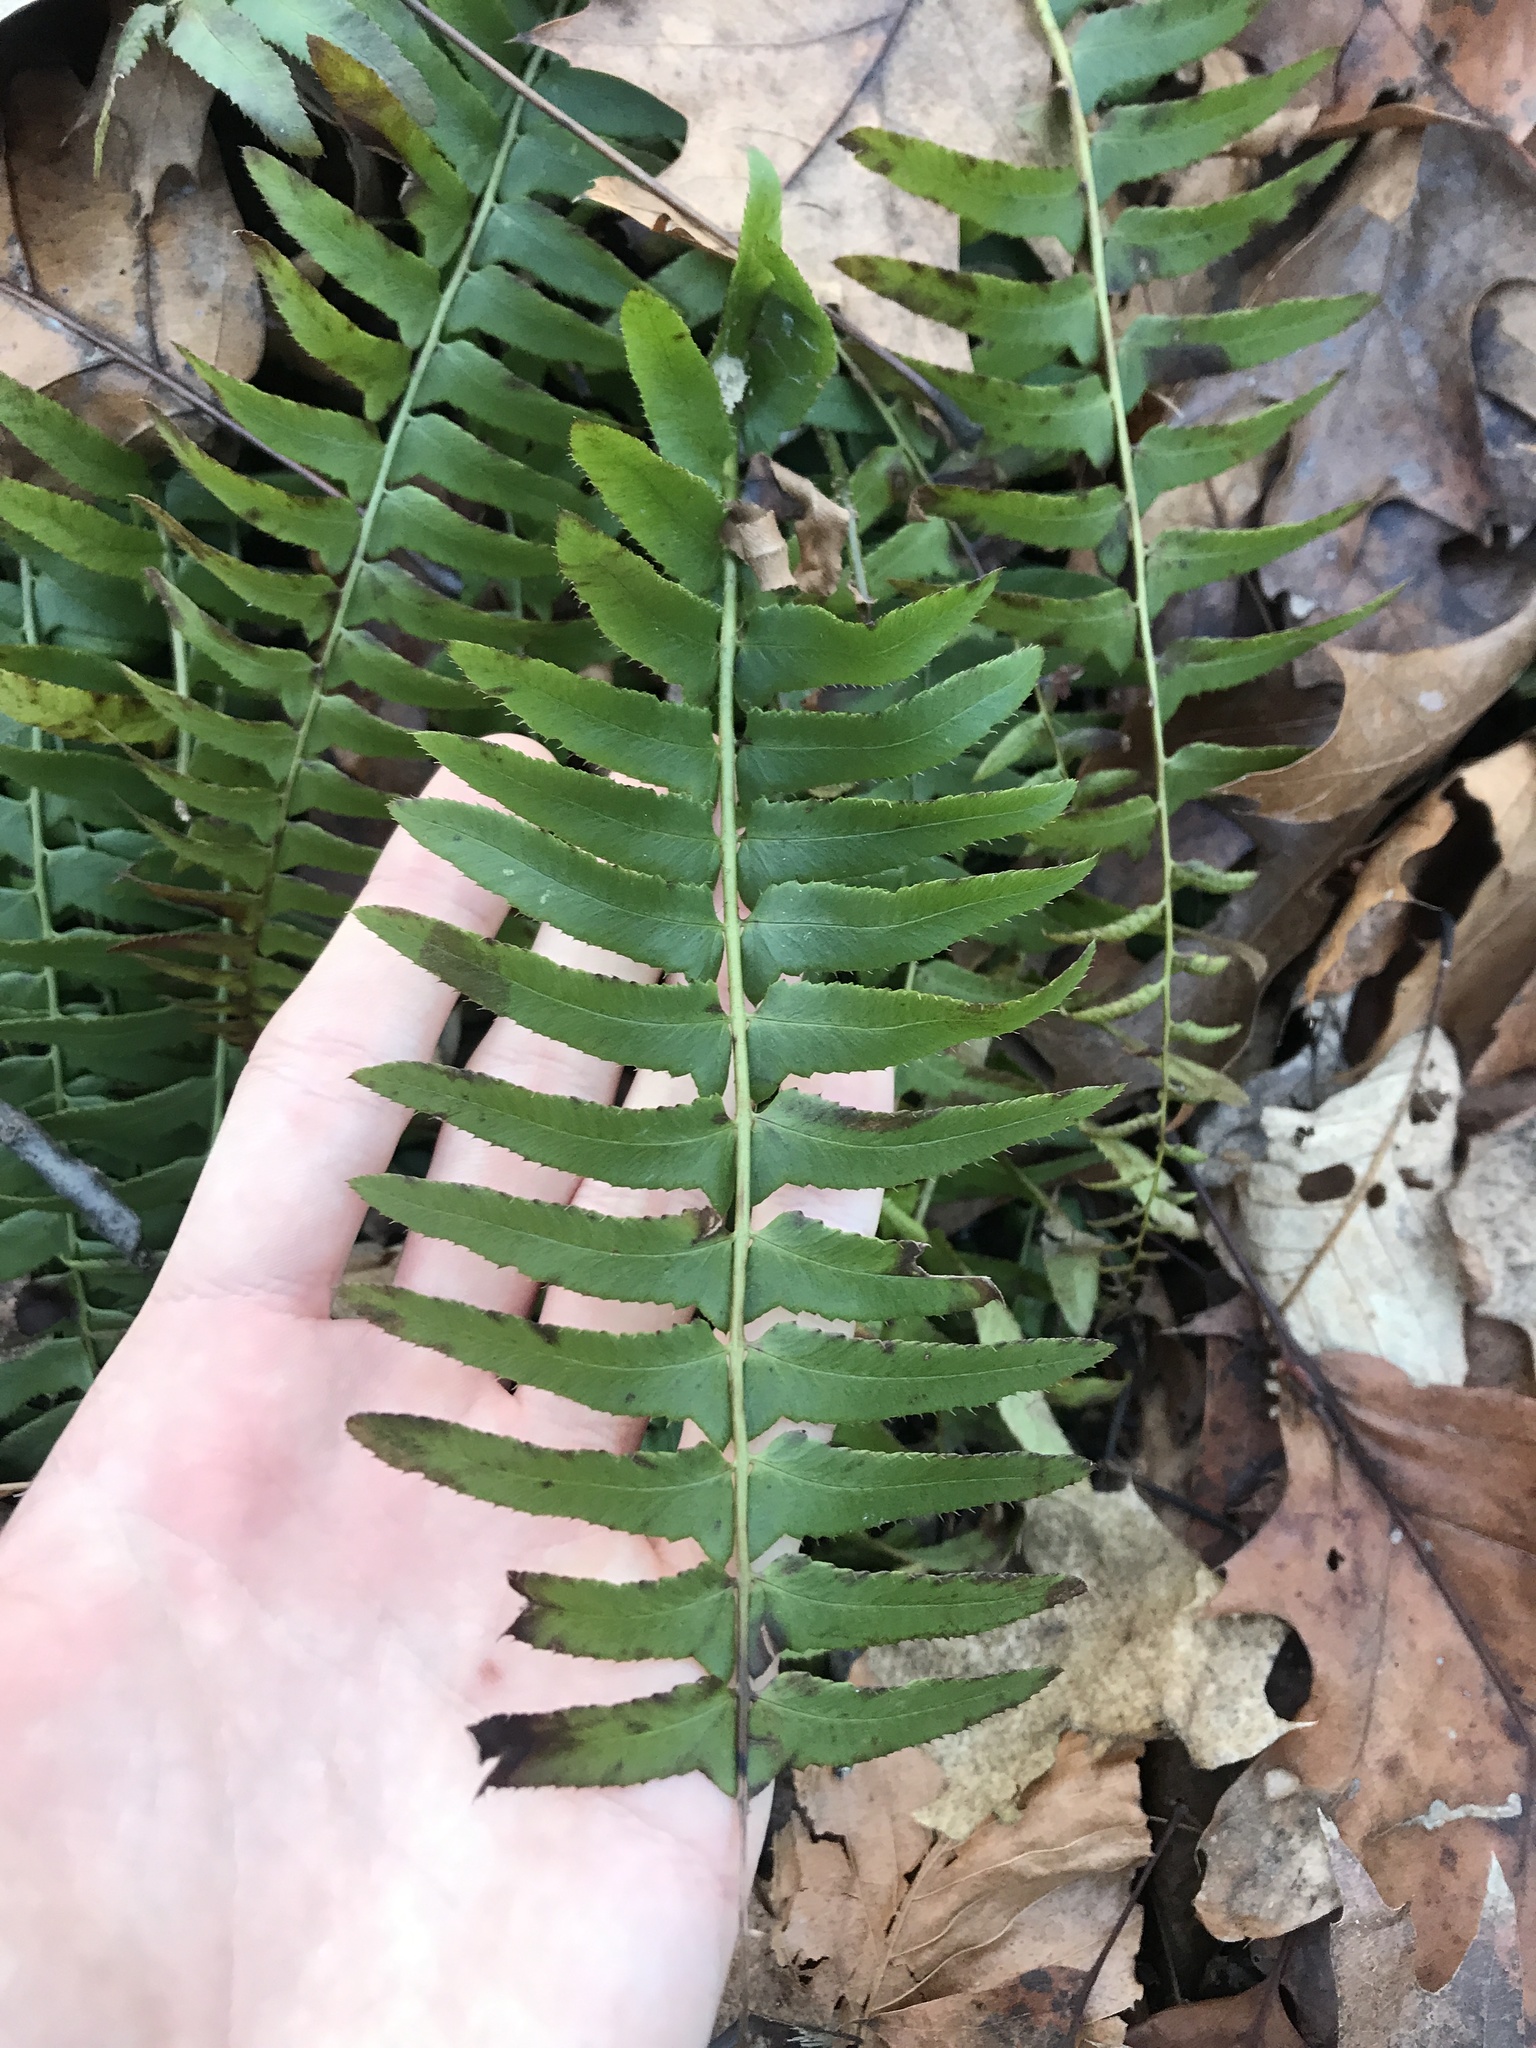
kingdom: Plantae
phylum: Tracheophyta
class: Polypodiopsida
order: Polypodiales
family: Dryopteridaceae
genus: Polystichum
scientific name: Polystichum acrostichoides
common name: Christmas fern
